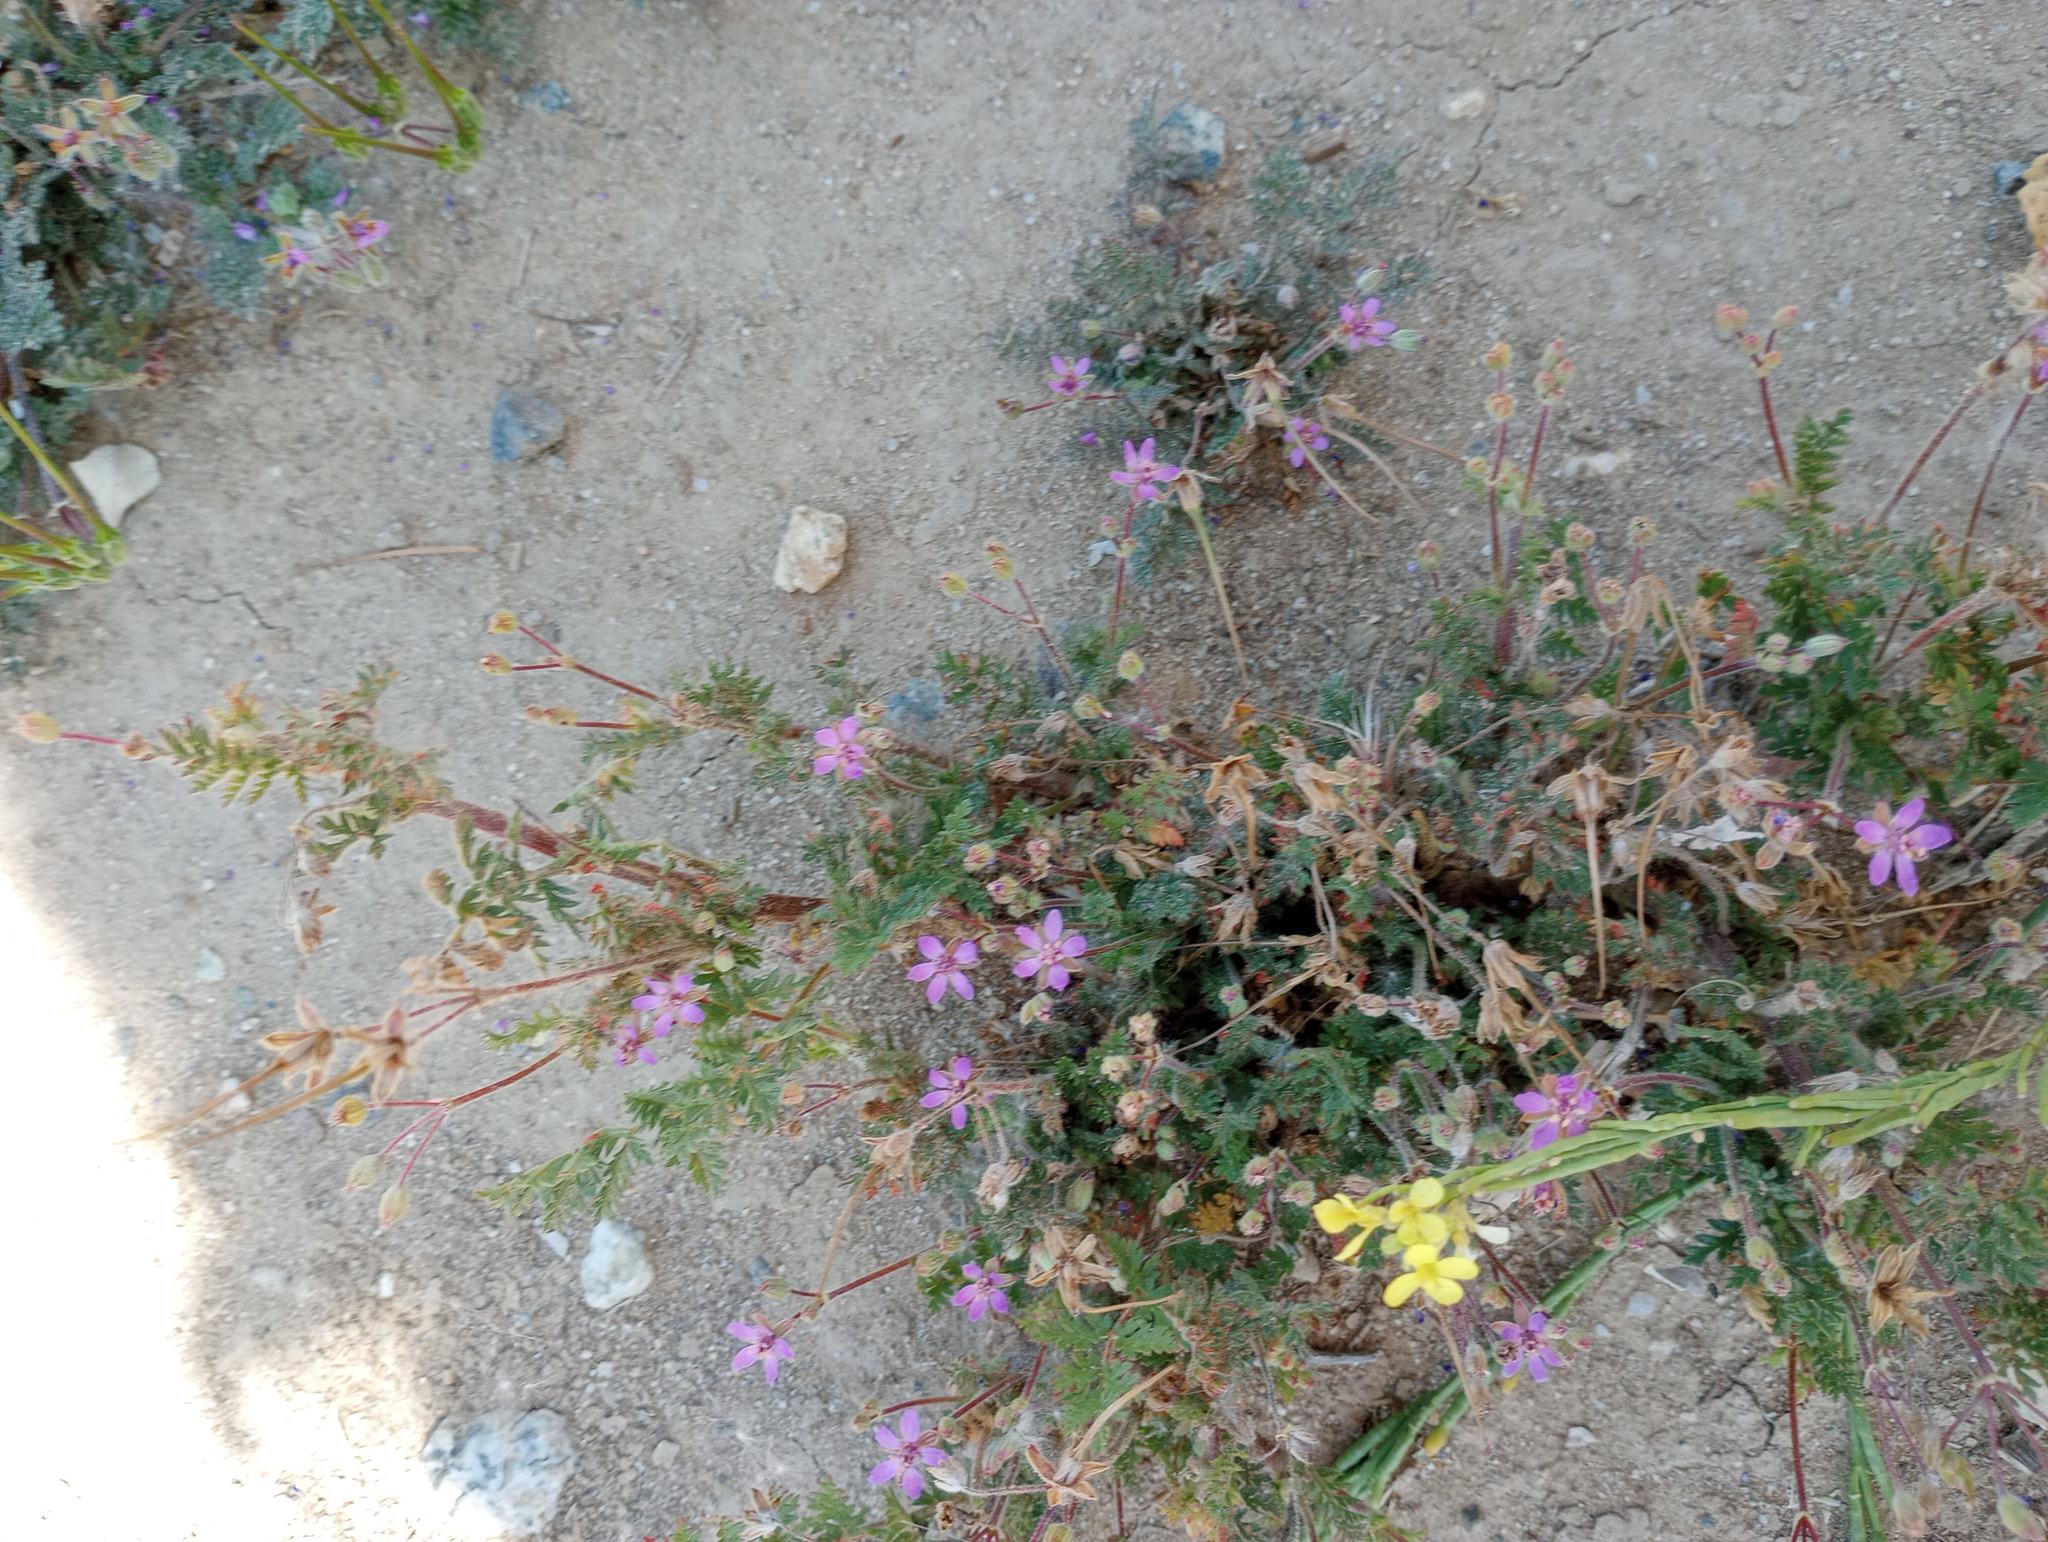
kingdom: Plantae
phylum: Tracheophyta
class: Magnoliopsida
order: Geraniales
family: Geraniaceae
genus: Erodium
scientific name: Erodium cicutarium
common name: Common stork's-bill
